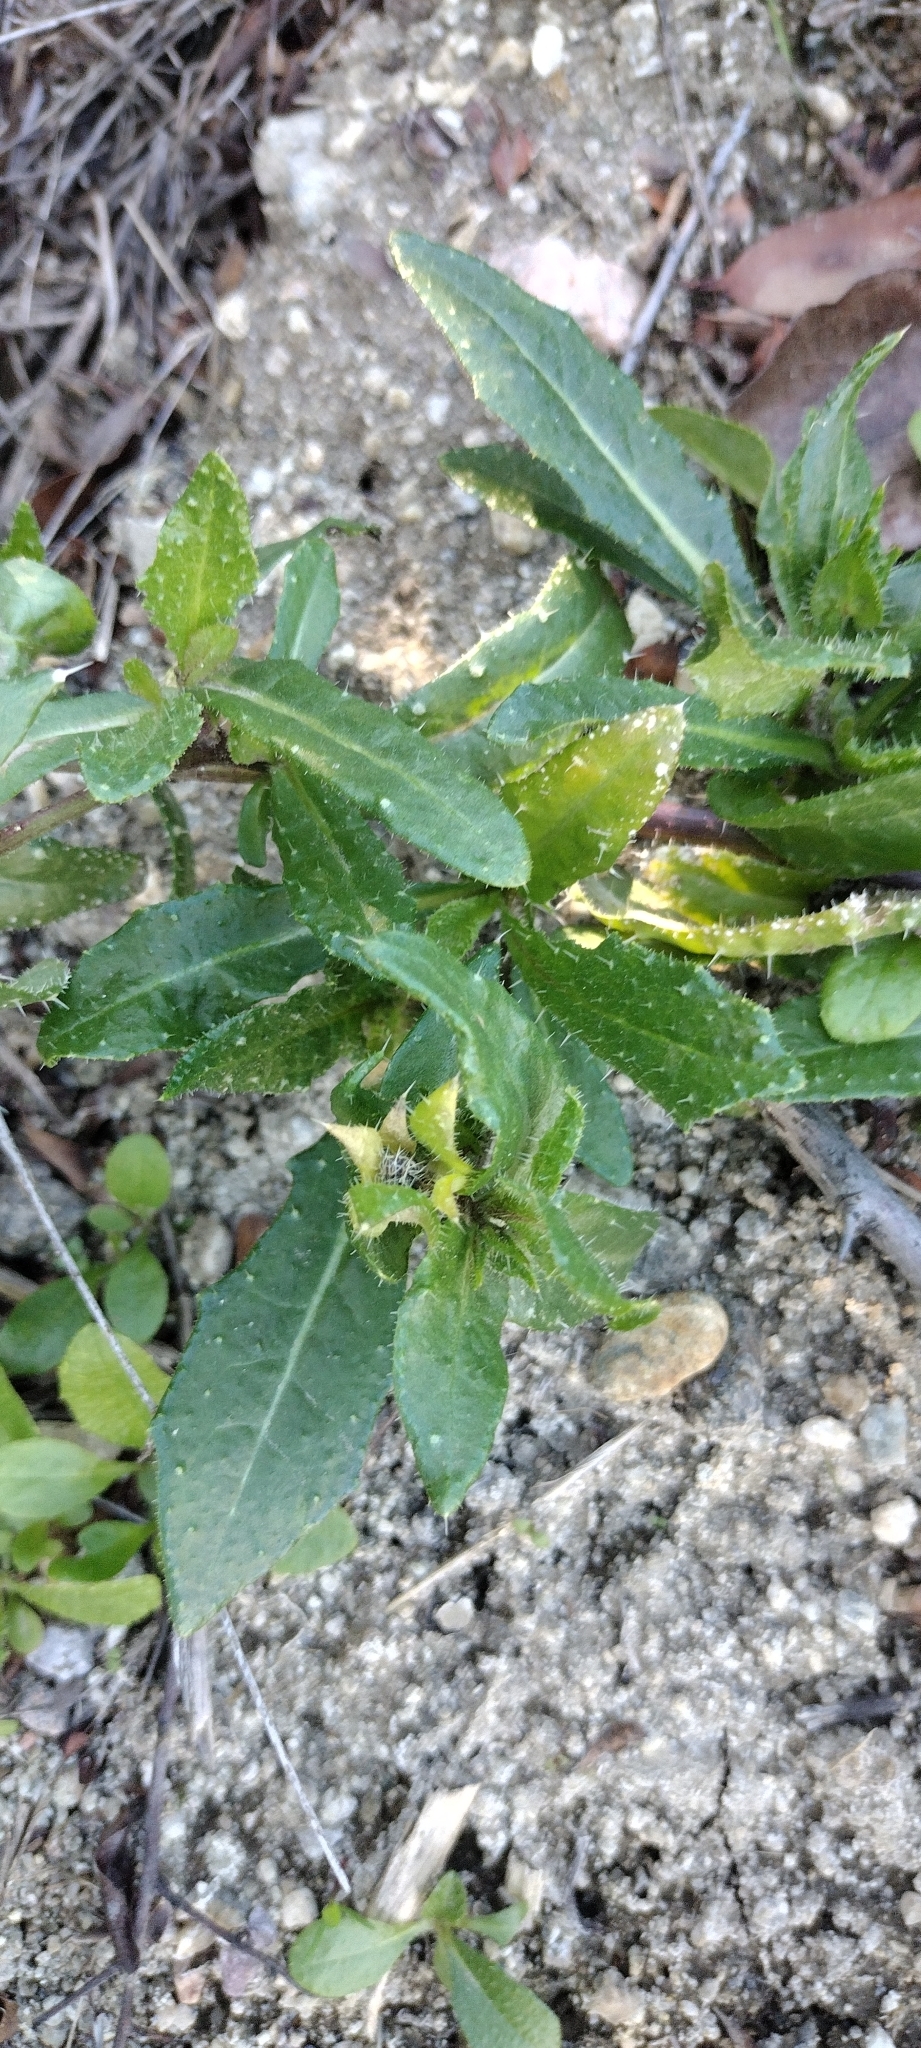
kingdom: Plantae
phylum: Tracheophyta
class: Magnoliopsida
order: Asterales
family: Asteraceae
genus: Helminthotheca
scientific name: Helminthotheca echioides
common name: Ox-tongue
